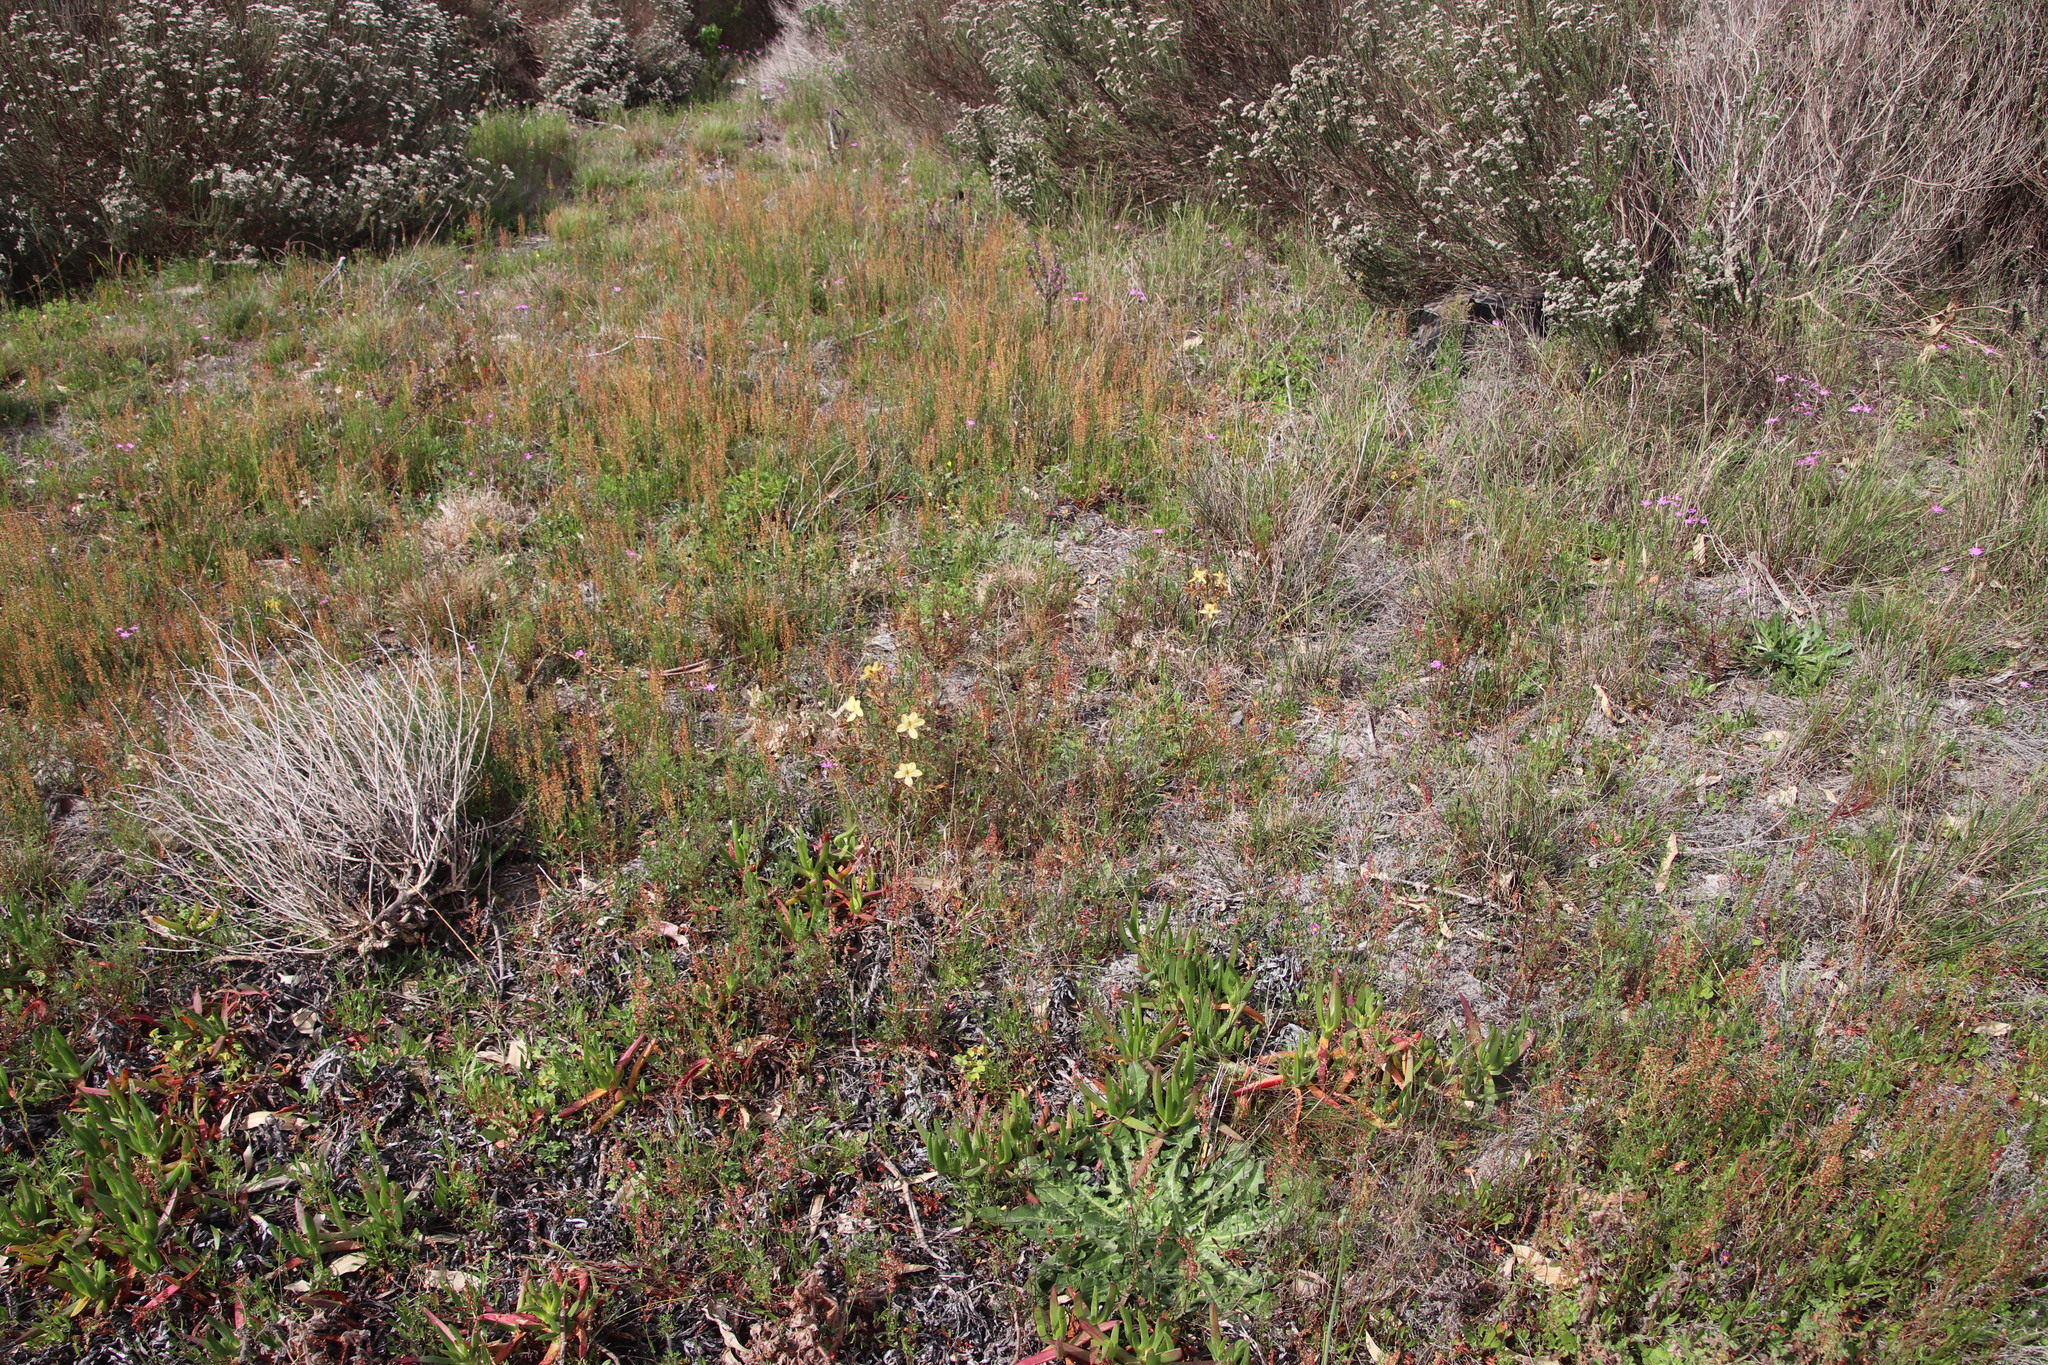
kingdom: Plantae
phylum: Tracheophyta
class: Liliopsida
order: Commelinales
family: Haemodoraceae
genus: Wachendorfia
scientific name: Wachendorfia paniculata
